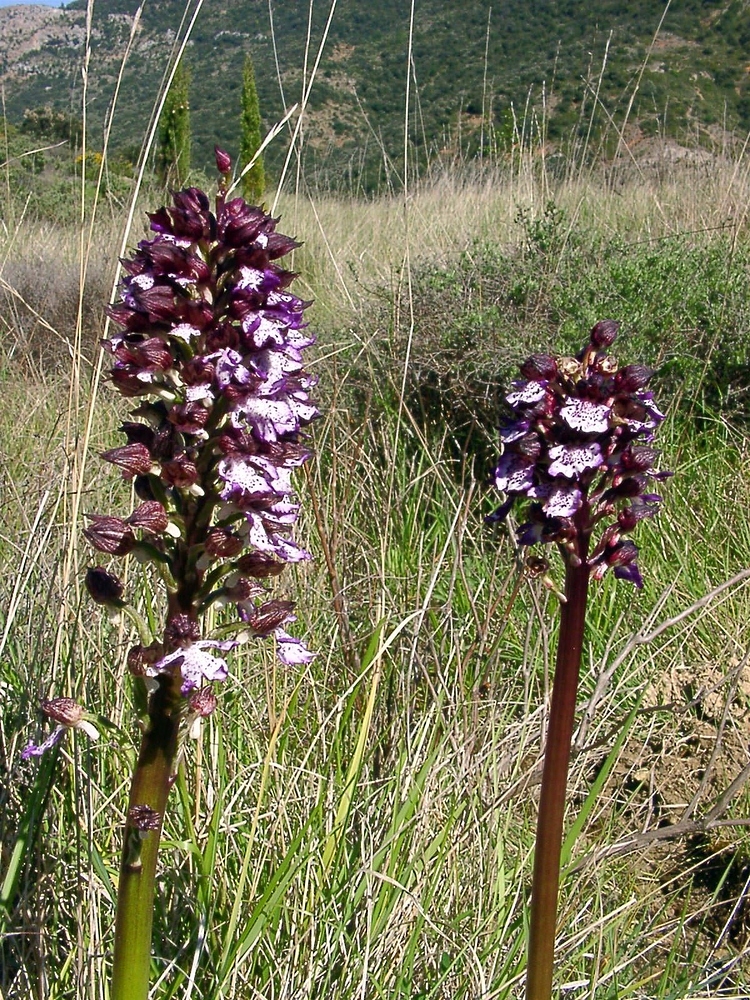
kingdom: Plantae
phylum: Tracheophyta
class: Liliopsida
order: Asparagales
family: Orchidaceae
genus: Orchis
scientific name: Orchis purpurea
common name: Lady orchid
